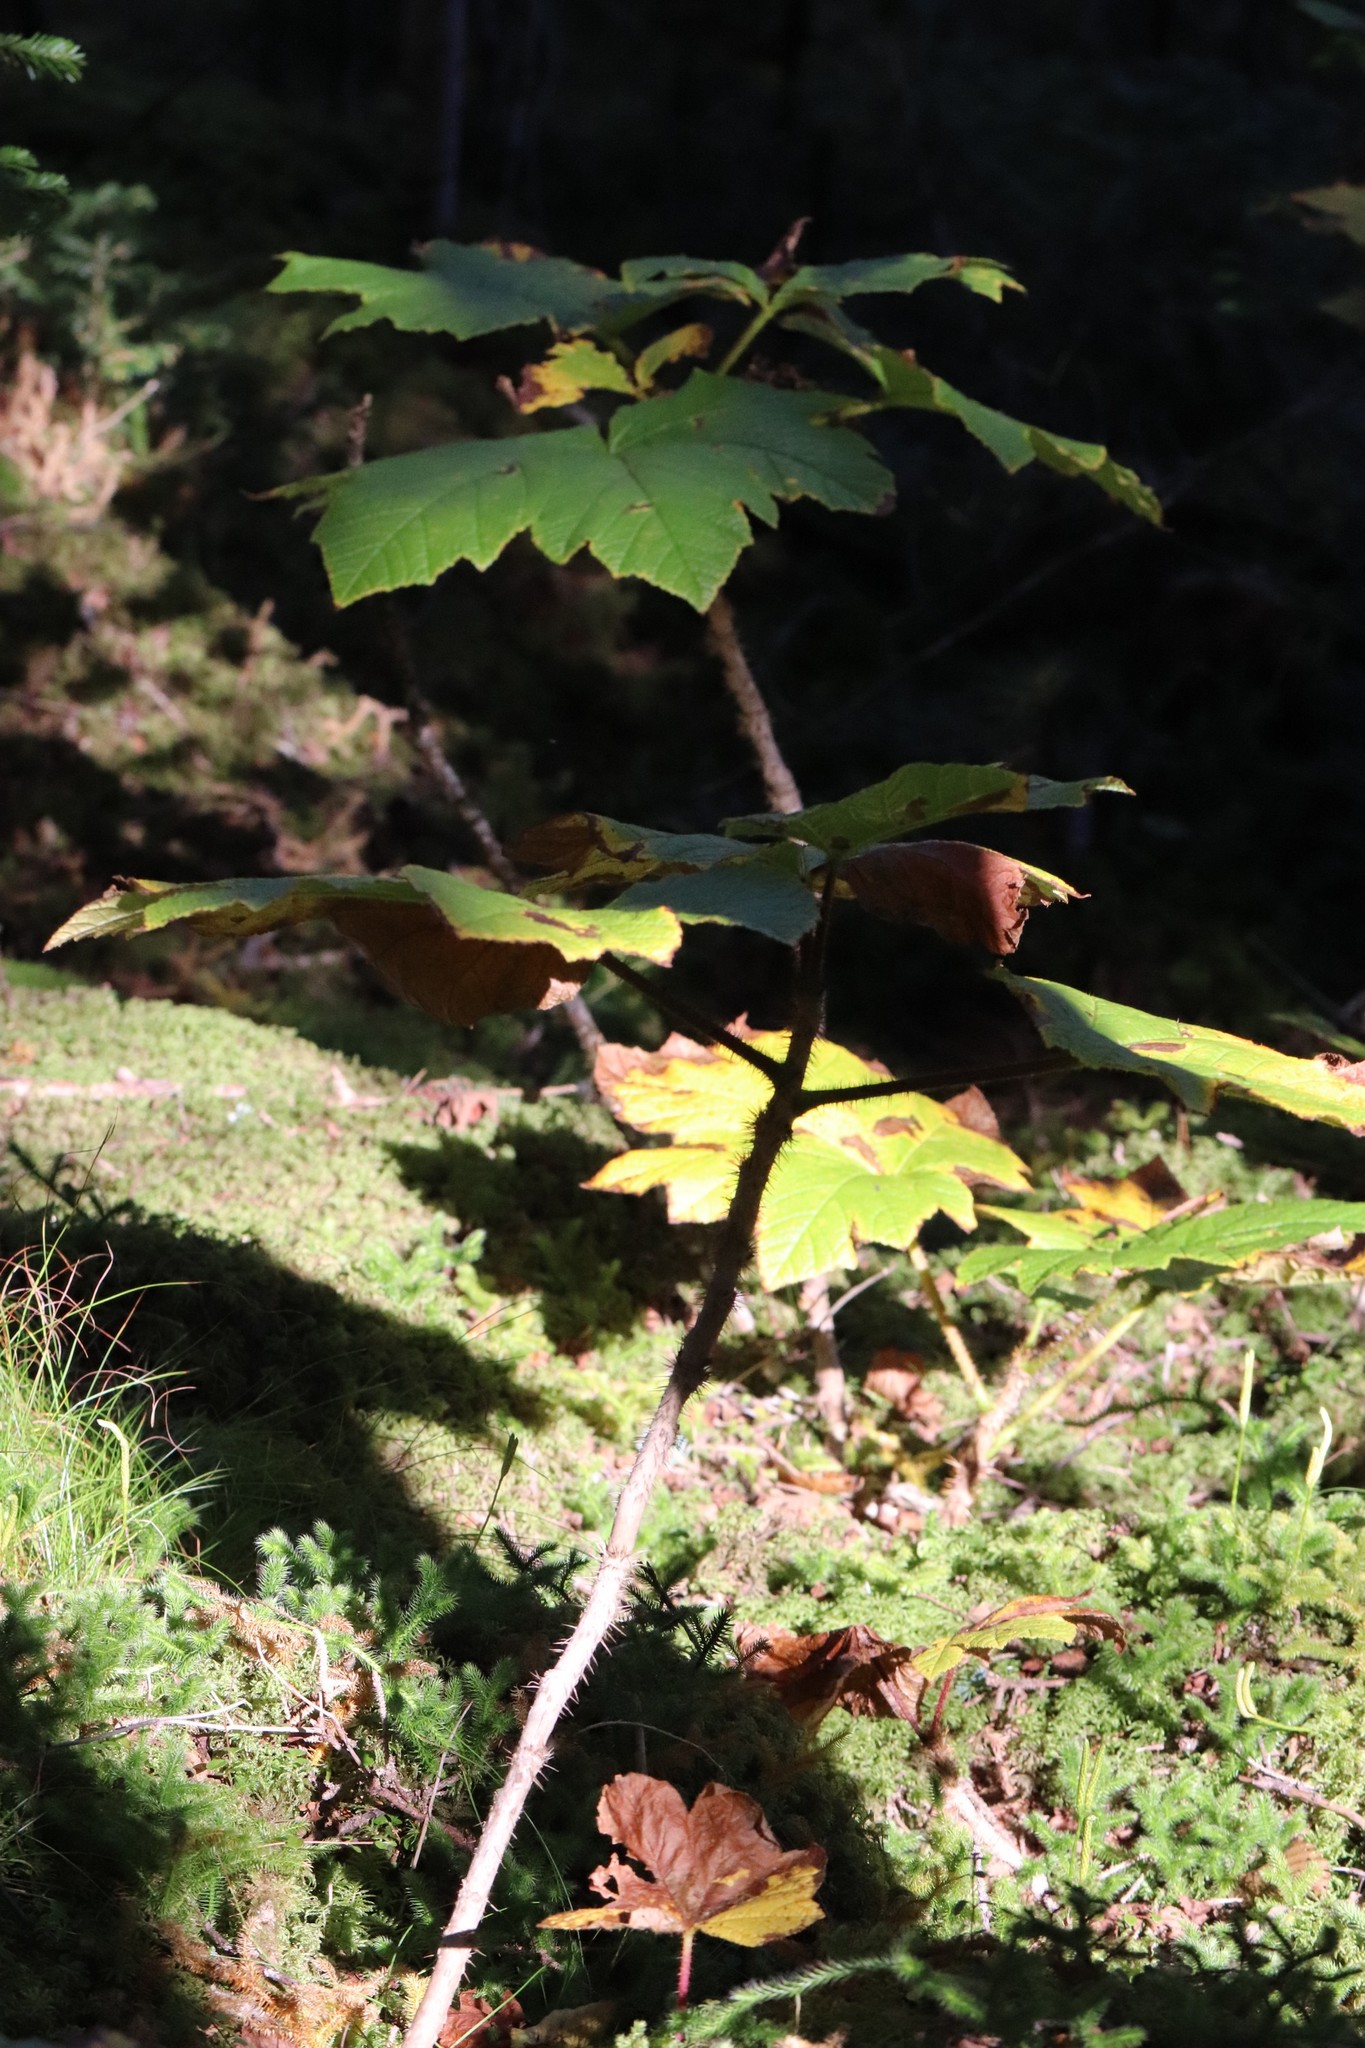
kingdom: Plantae
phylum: Tracheophyta
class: Magnoliopsida
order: Apiales
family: Araliaceae
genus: Oplopanax
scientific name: Oplopanax elatus
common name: Japanese devil's-club
